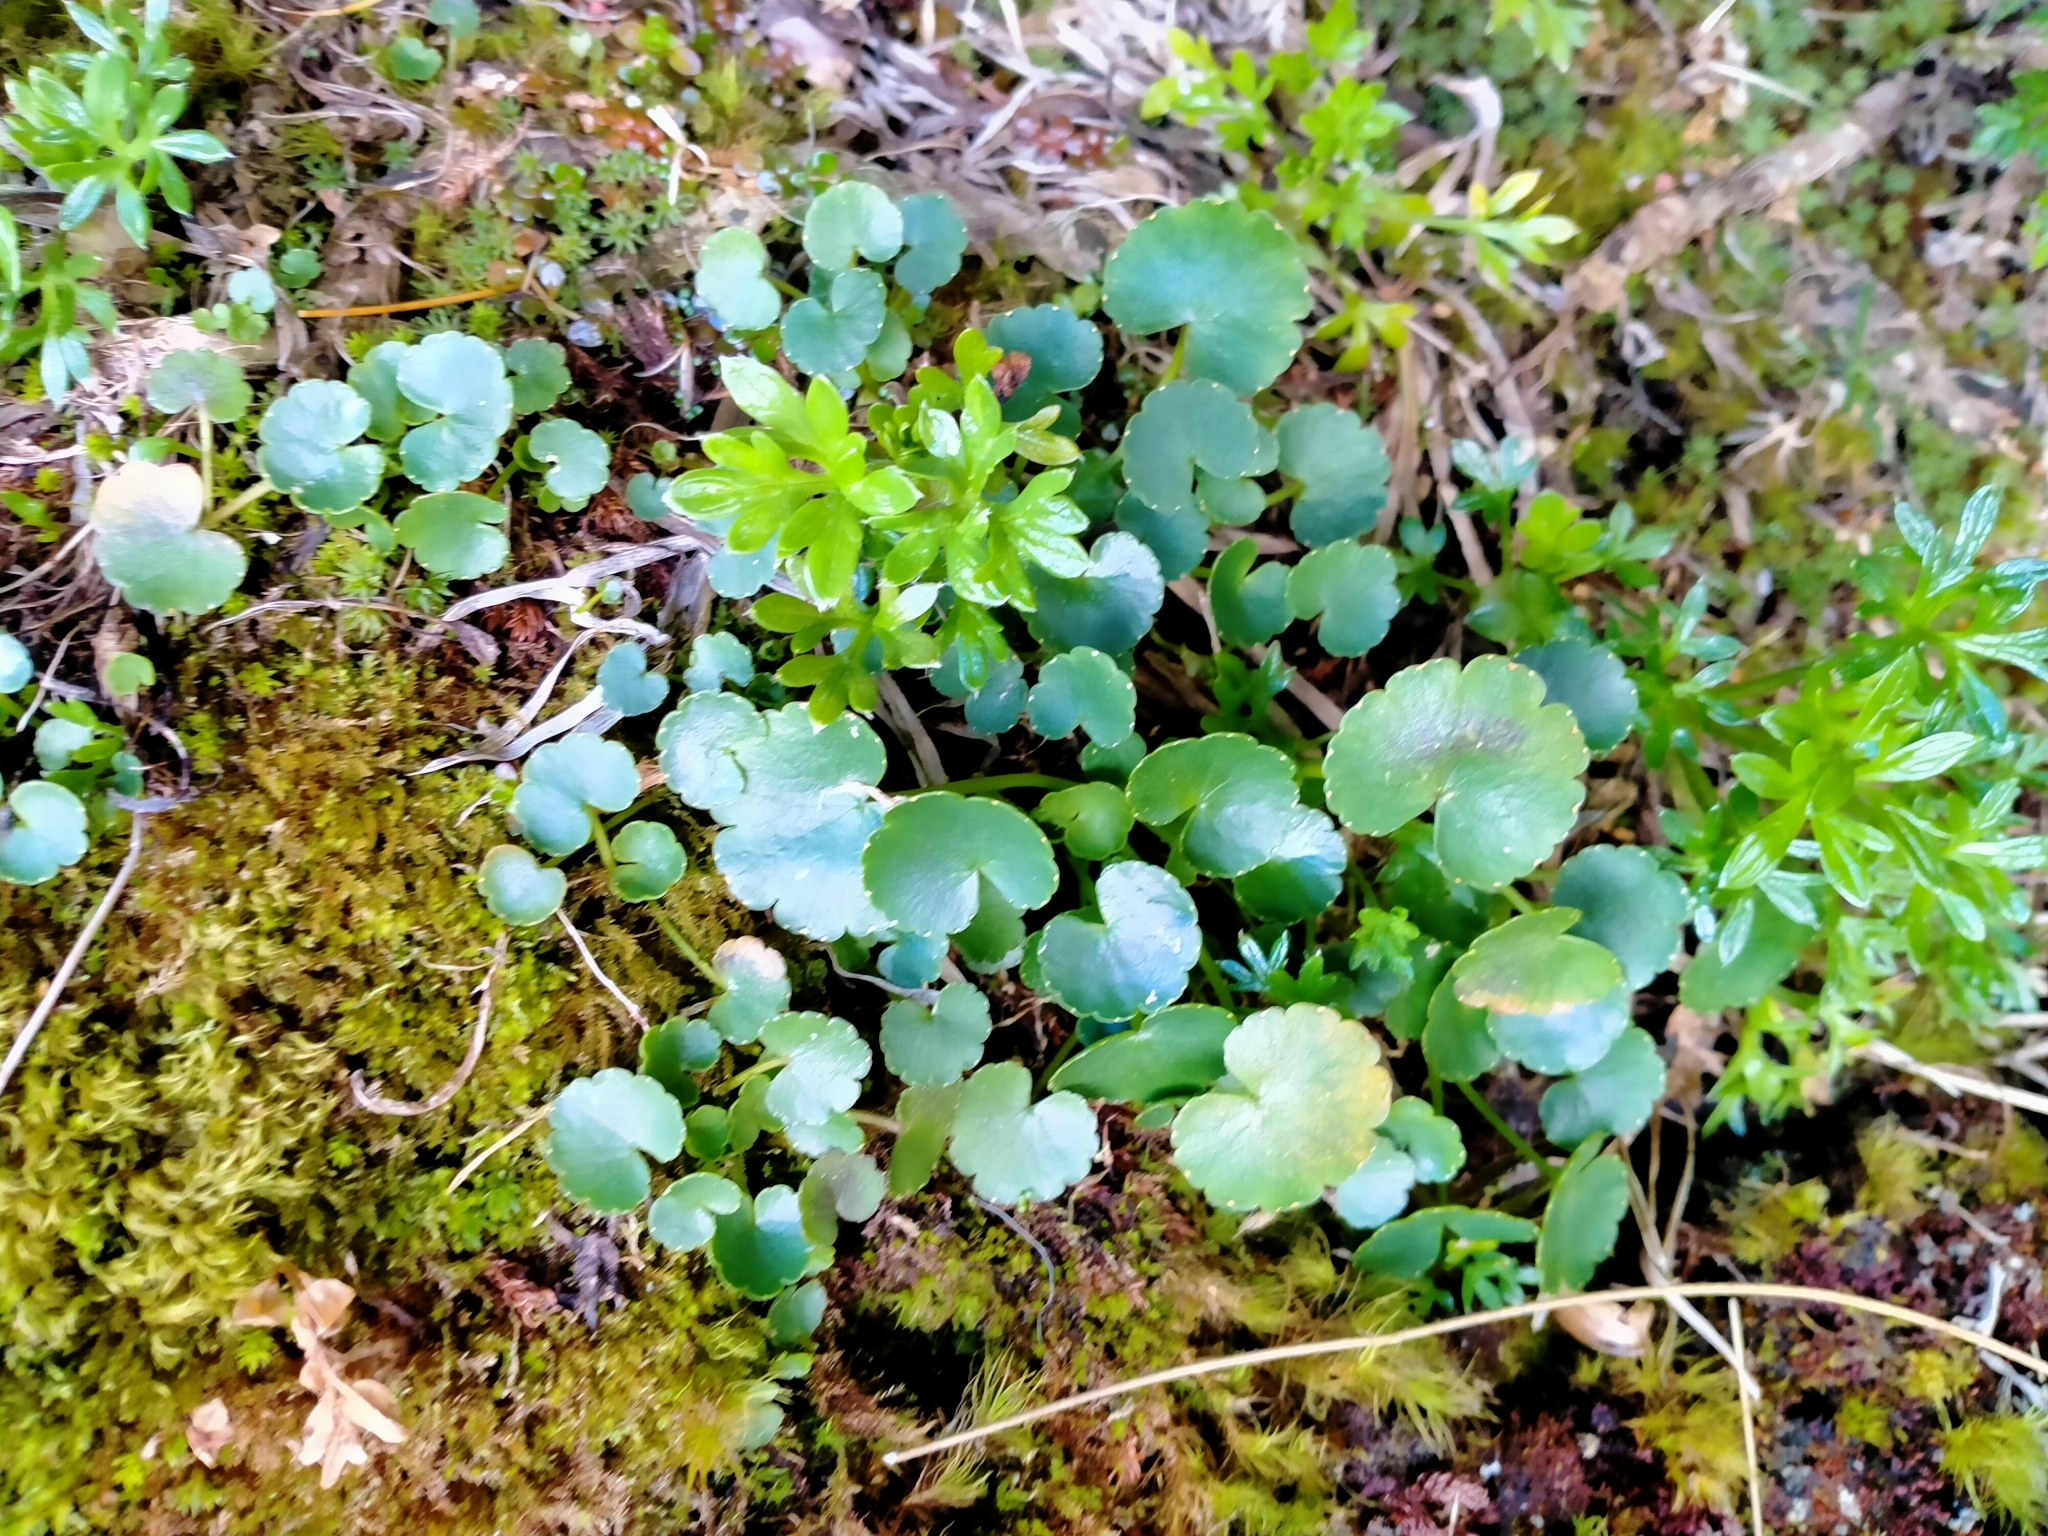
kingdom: Plantae
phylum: Tracheophyta
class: Magnoliopsida
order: Apiales
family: Apiaceae
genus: Azorella
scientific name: Azorella haastii
